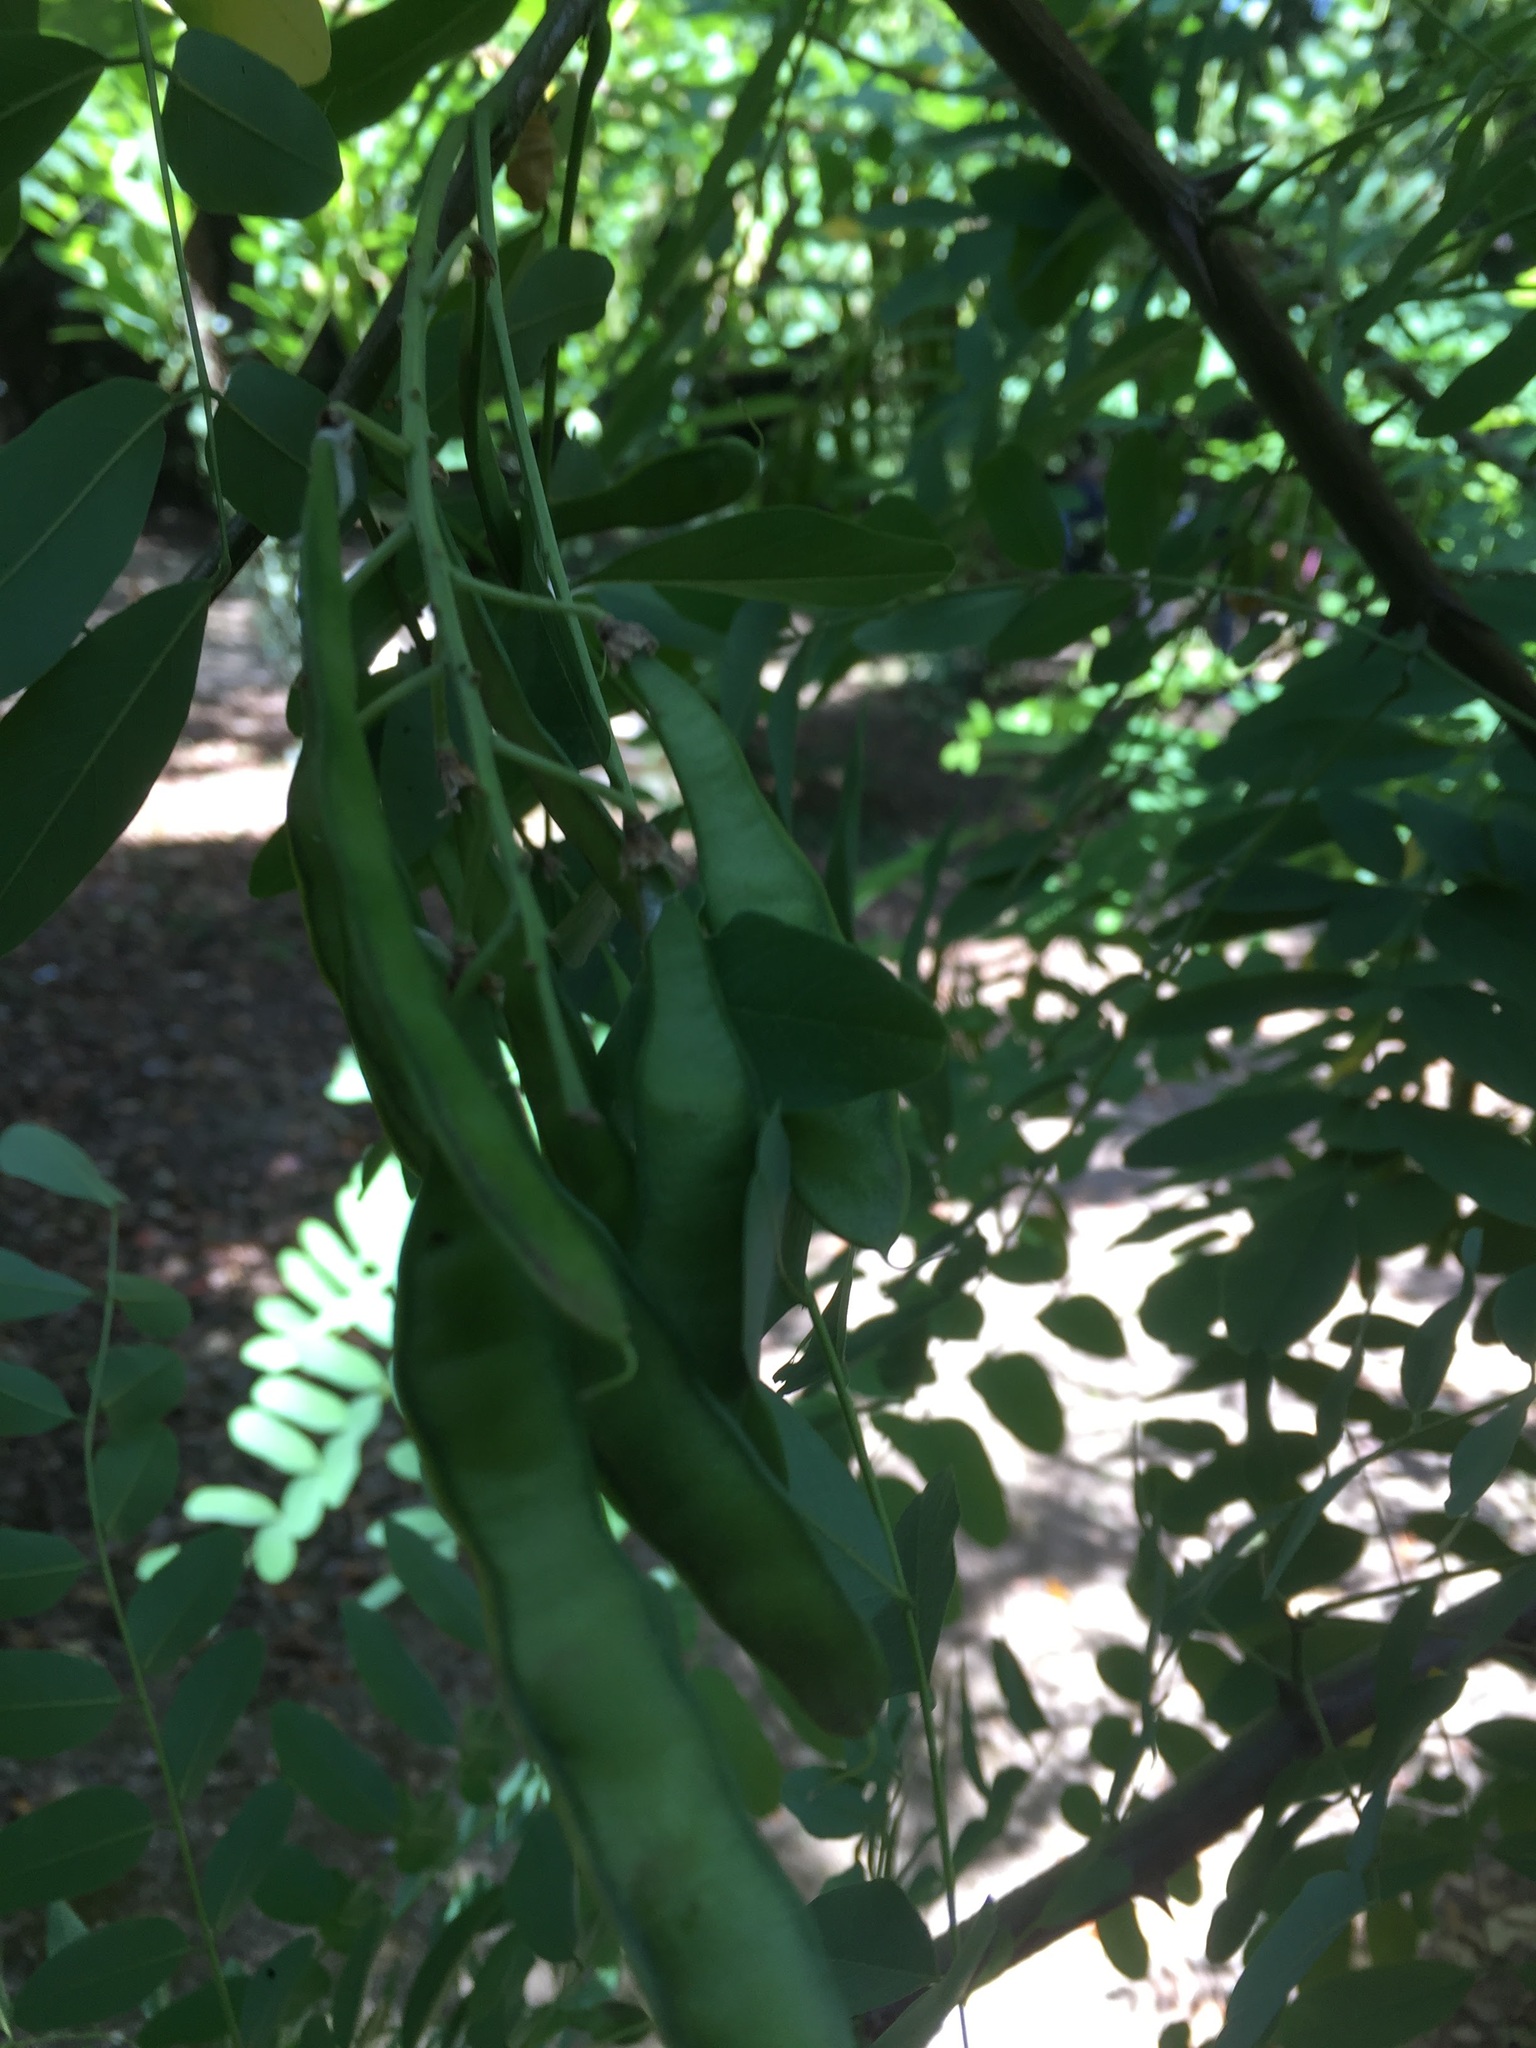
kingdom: Plantae
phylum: Tracheophyta
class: Magnoliopsida
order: Fabales
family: Fabaceae
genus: Robinia
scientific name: Robinia pseudoacacia
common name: Black locust
